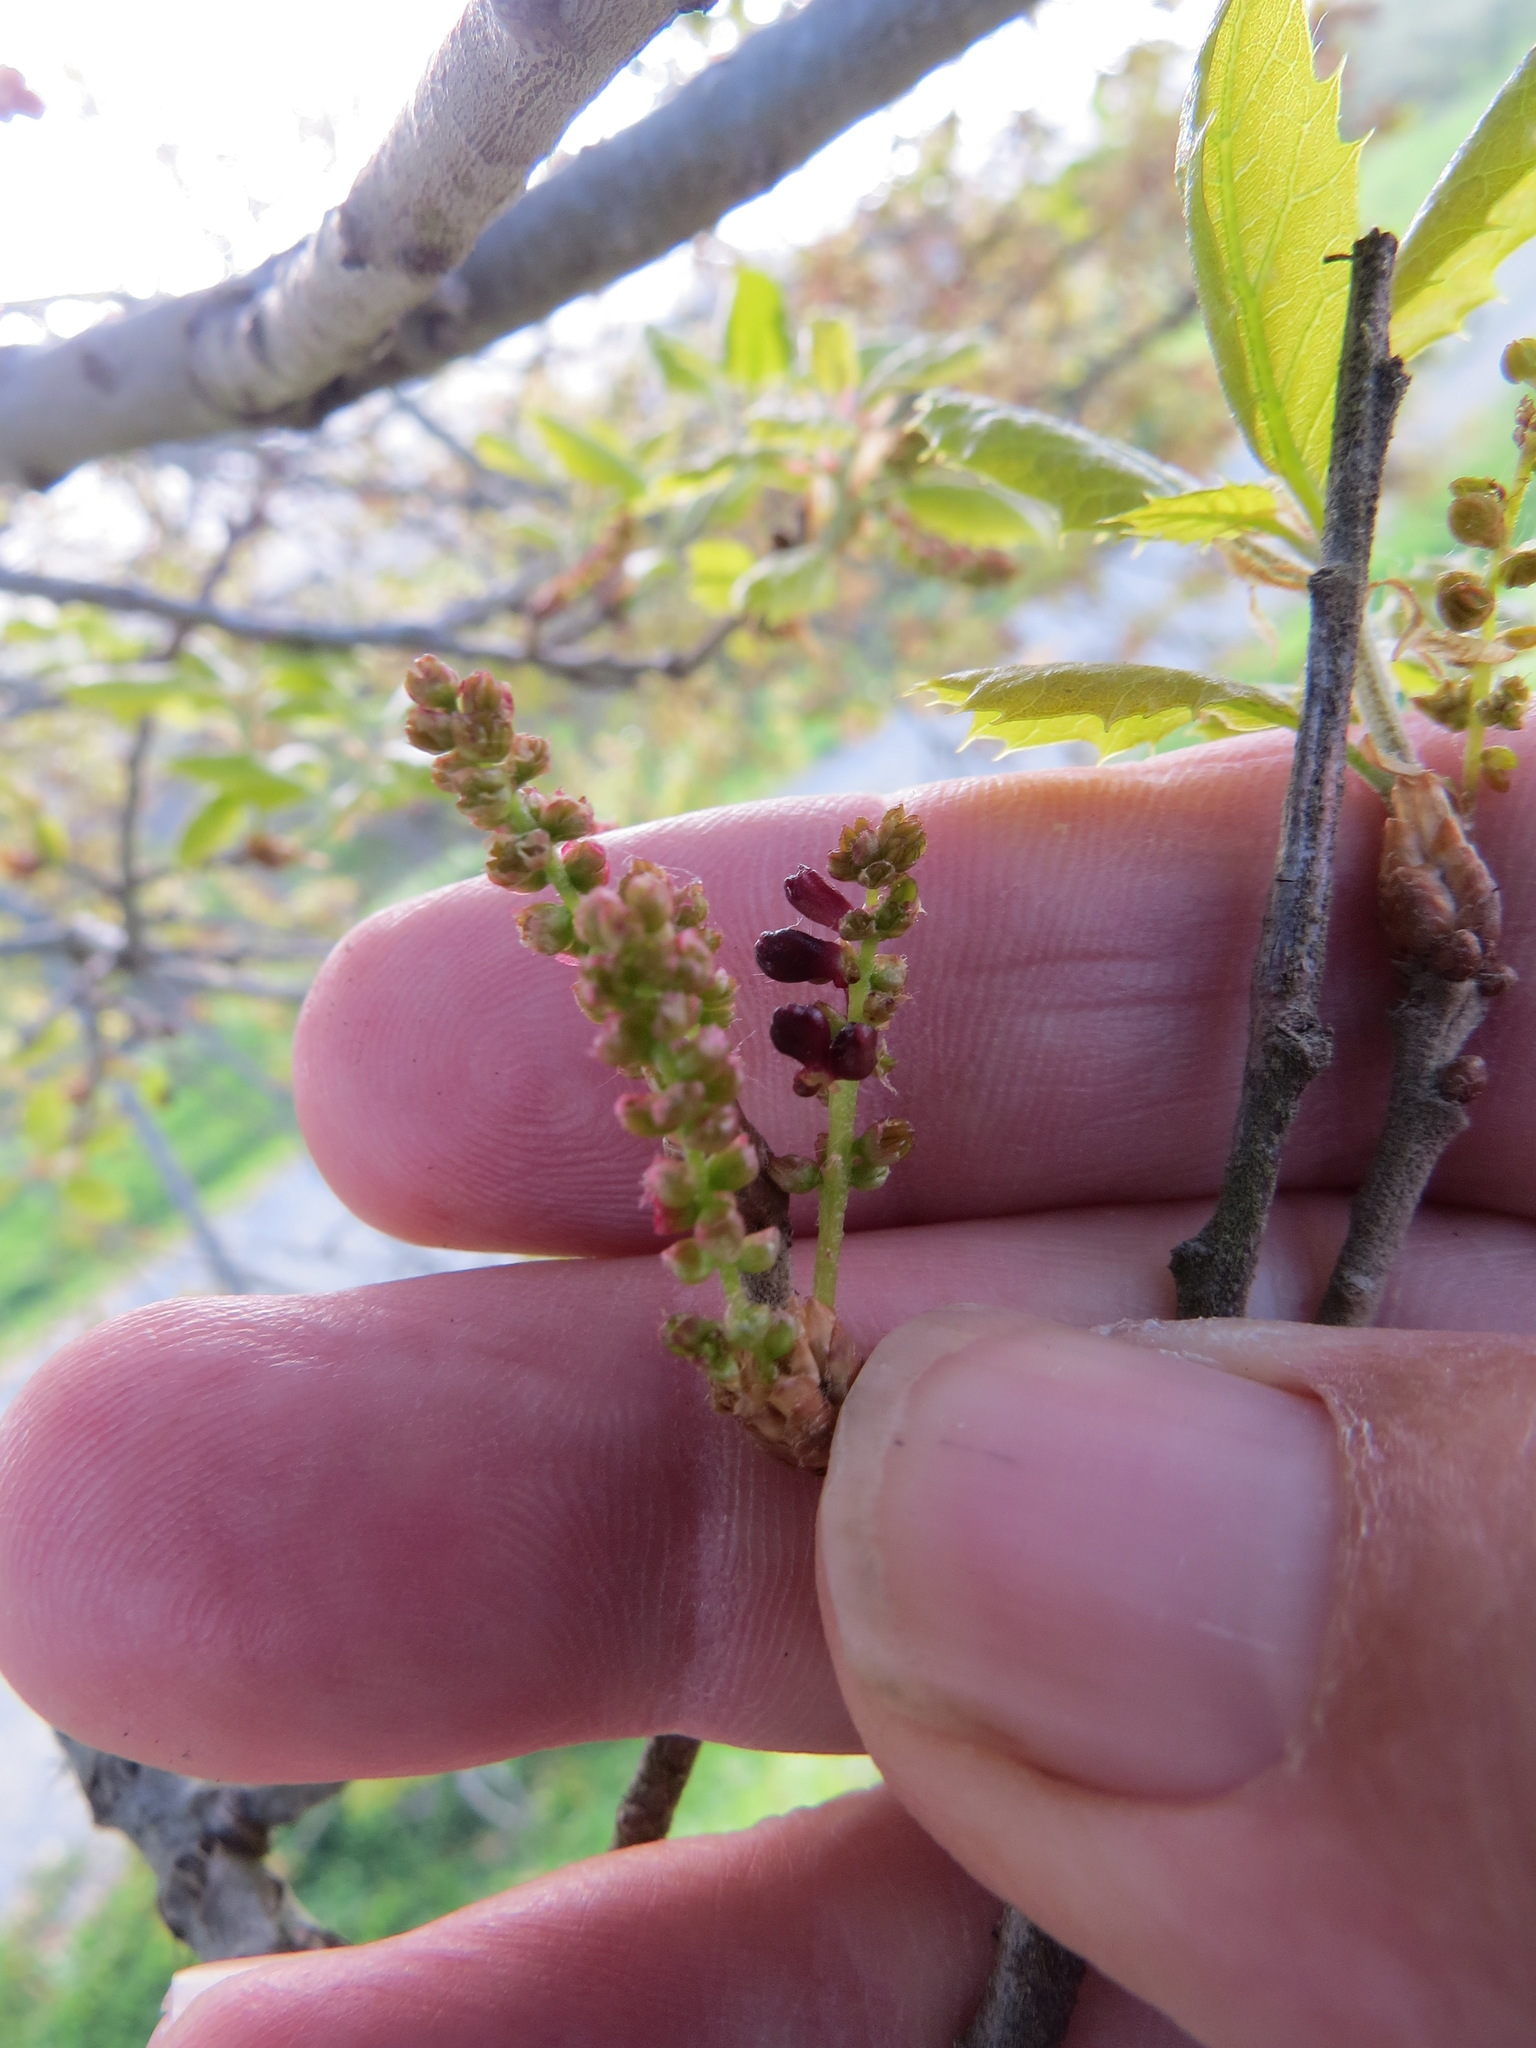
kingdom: Animalia
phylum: Arthropoda
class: Insecta
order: Hymenoptera
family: Cynipidae
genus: Dryocosmus
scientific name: Dryocosmus
